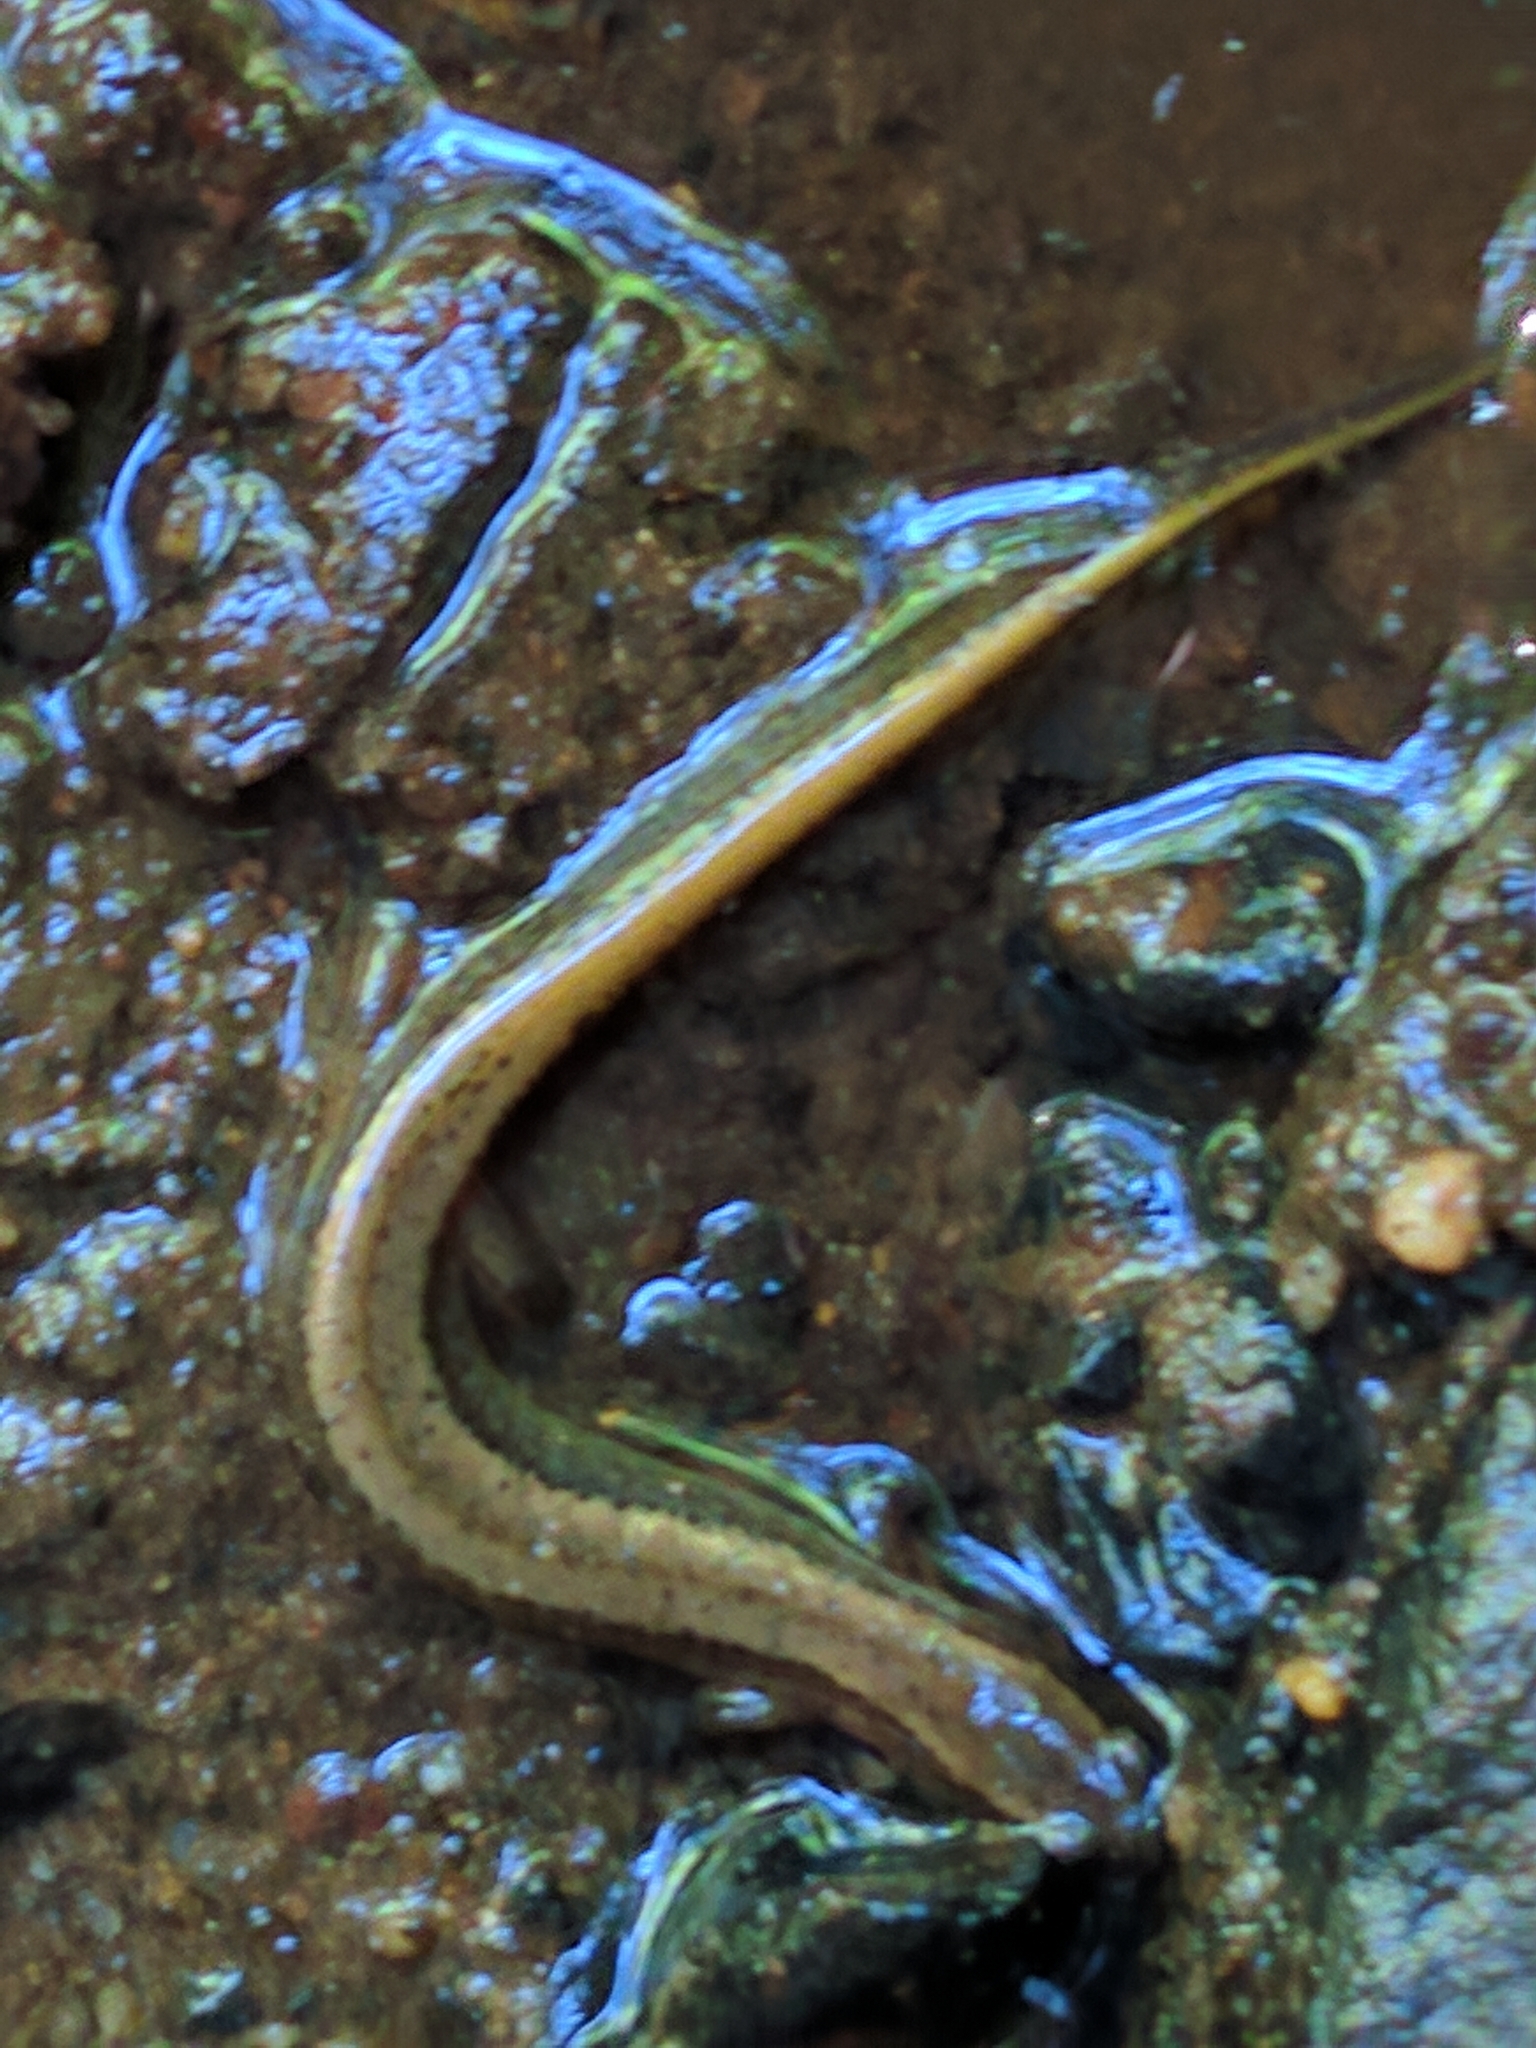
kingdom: Animalia
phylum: Chordata
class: Amphibia
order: Caudata
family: Plethodontidae
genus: Eurycea
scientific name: Eurycea bislineata
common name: Northern two-lined salamander
